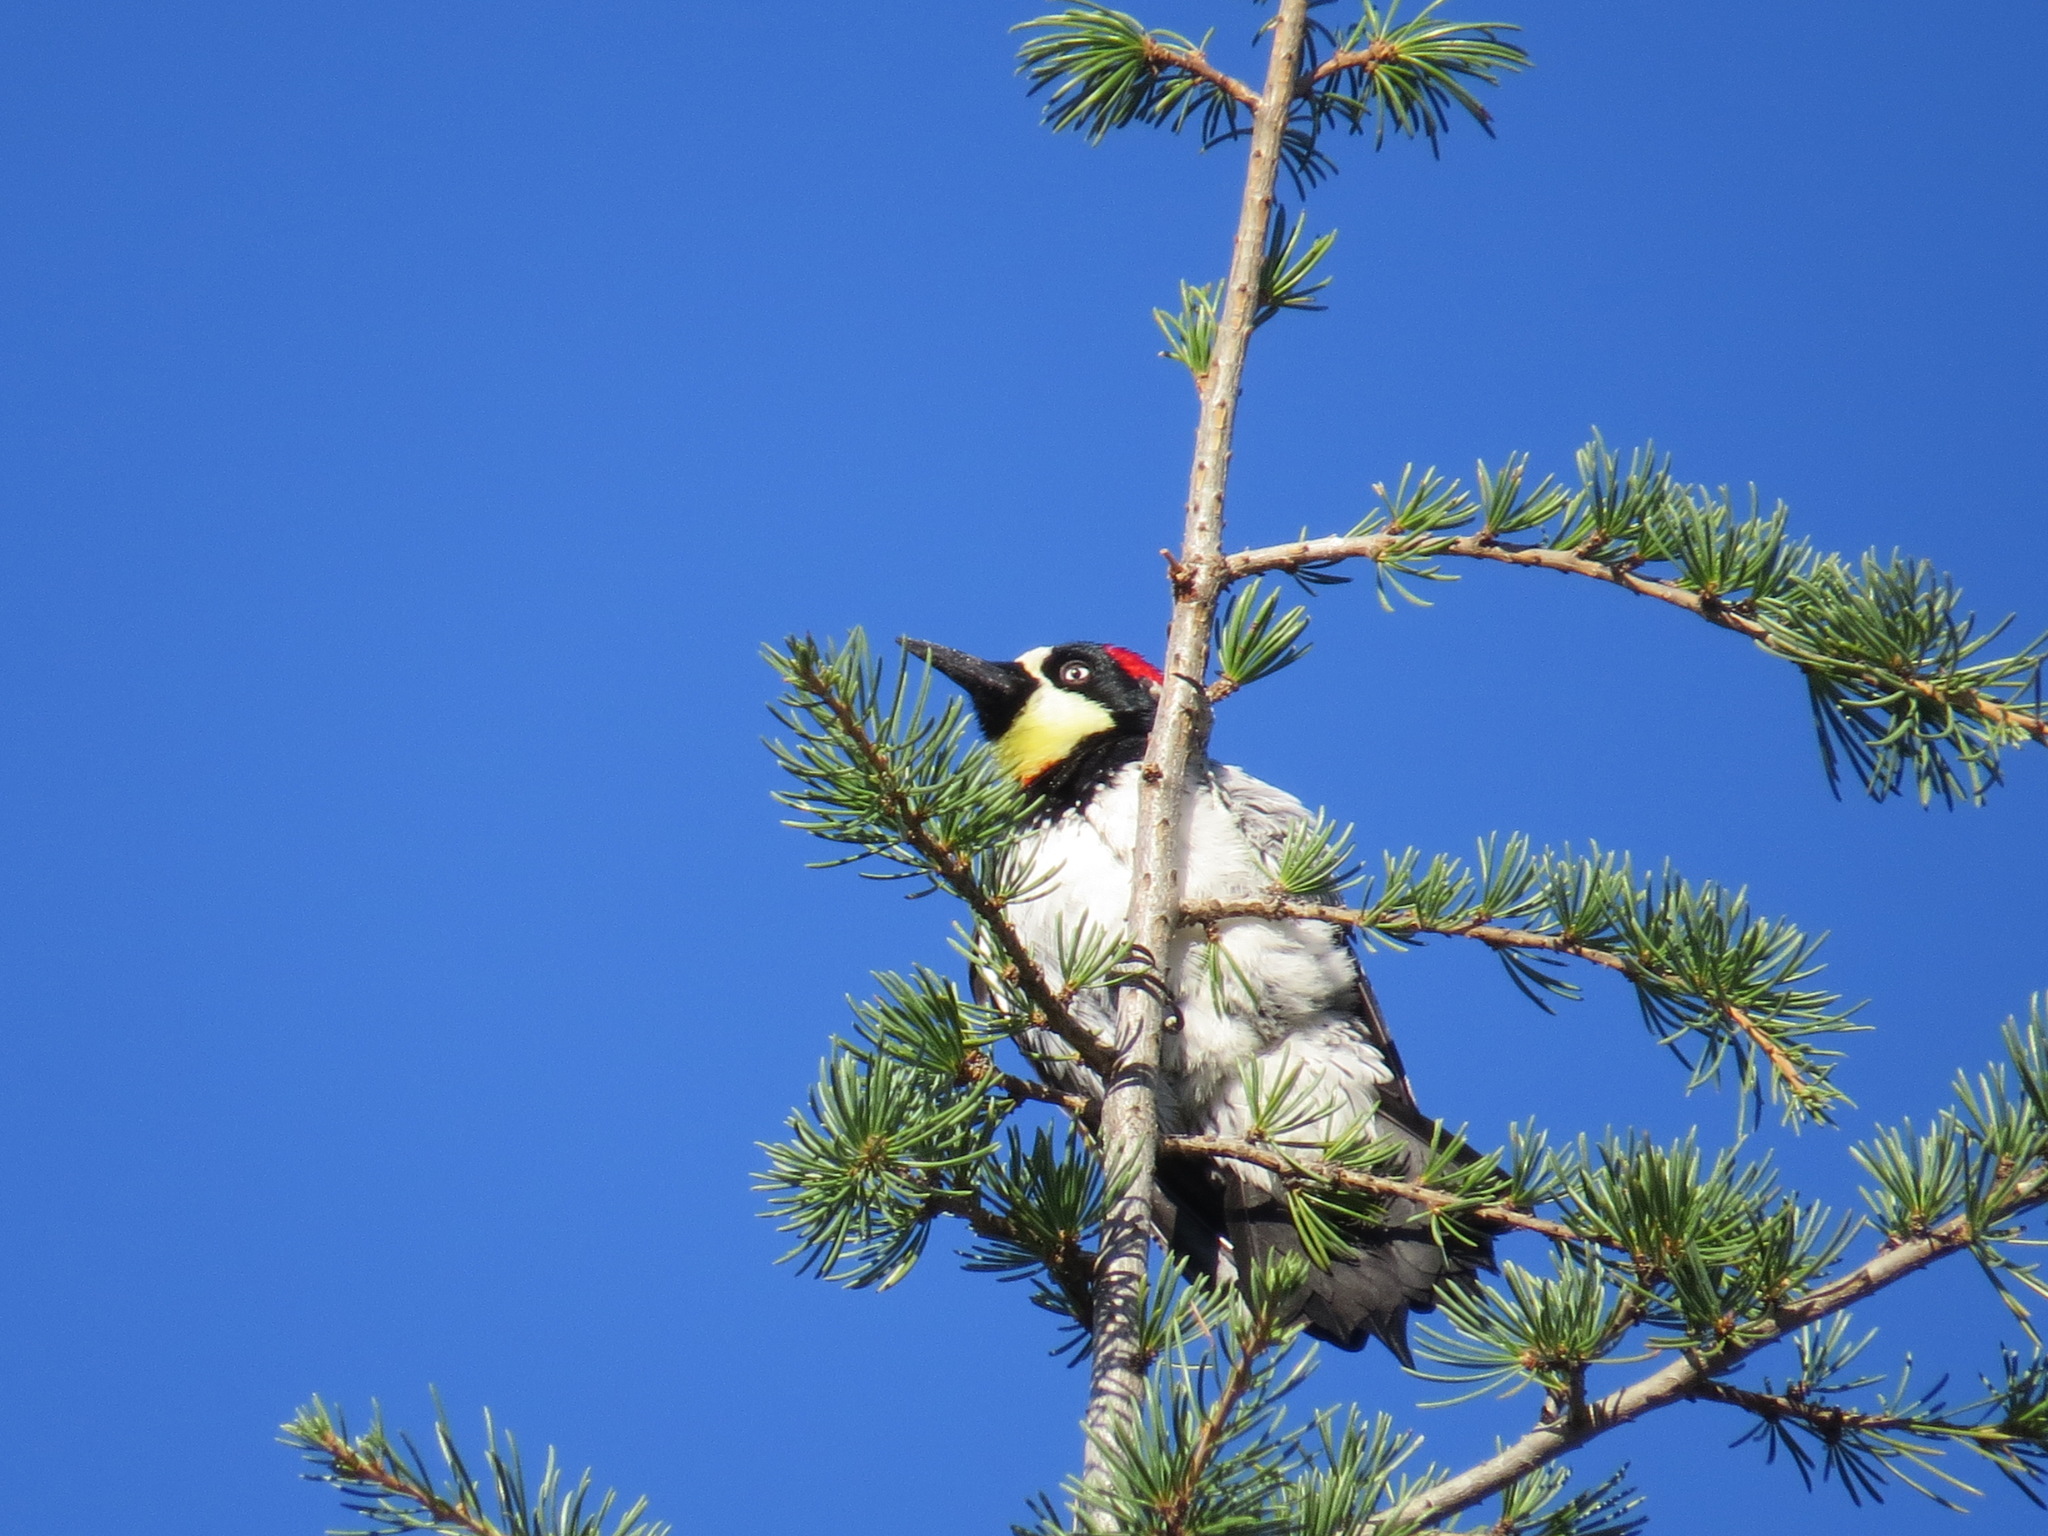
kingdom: Animalia
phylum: Chordata
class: Aves
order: Piciformes
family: Picidae
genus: Melanerpes
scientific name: Melanerpes formicivorus
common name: Acorn woodpecker
